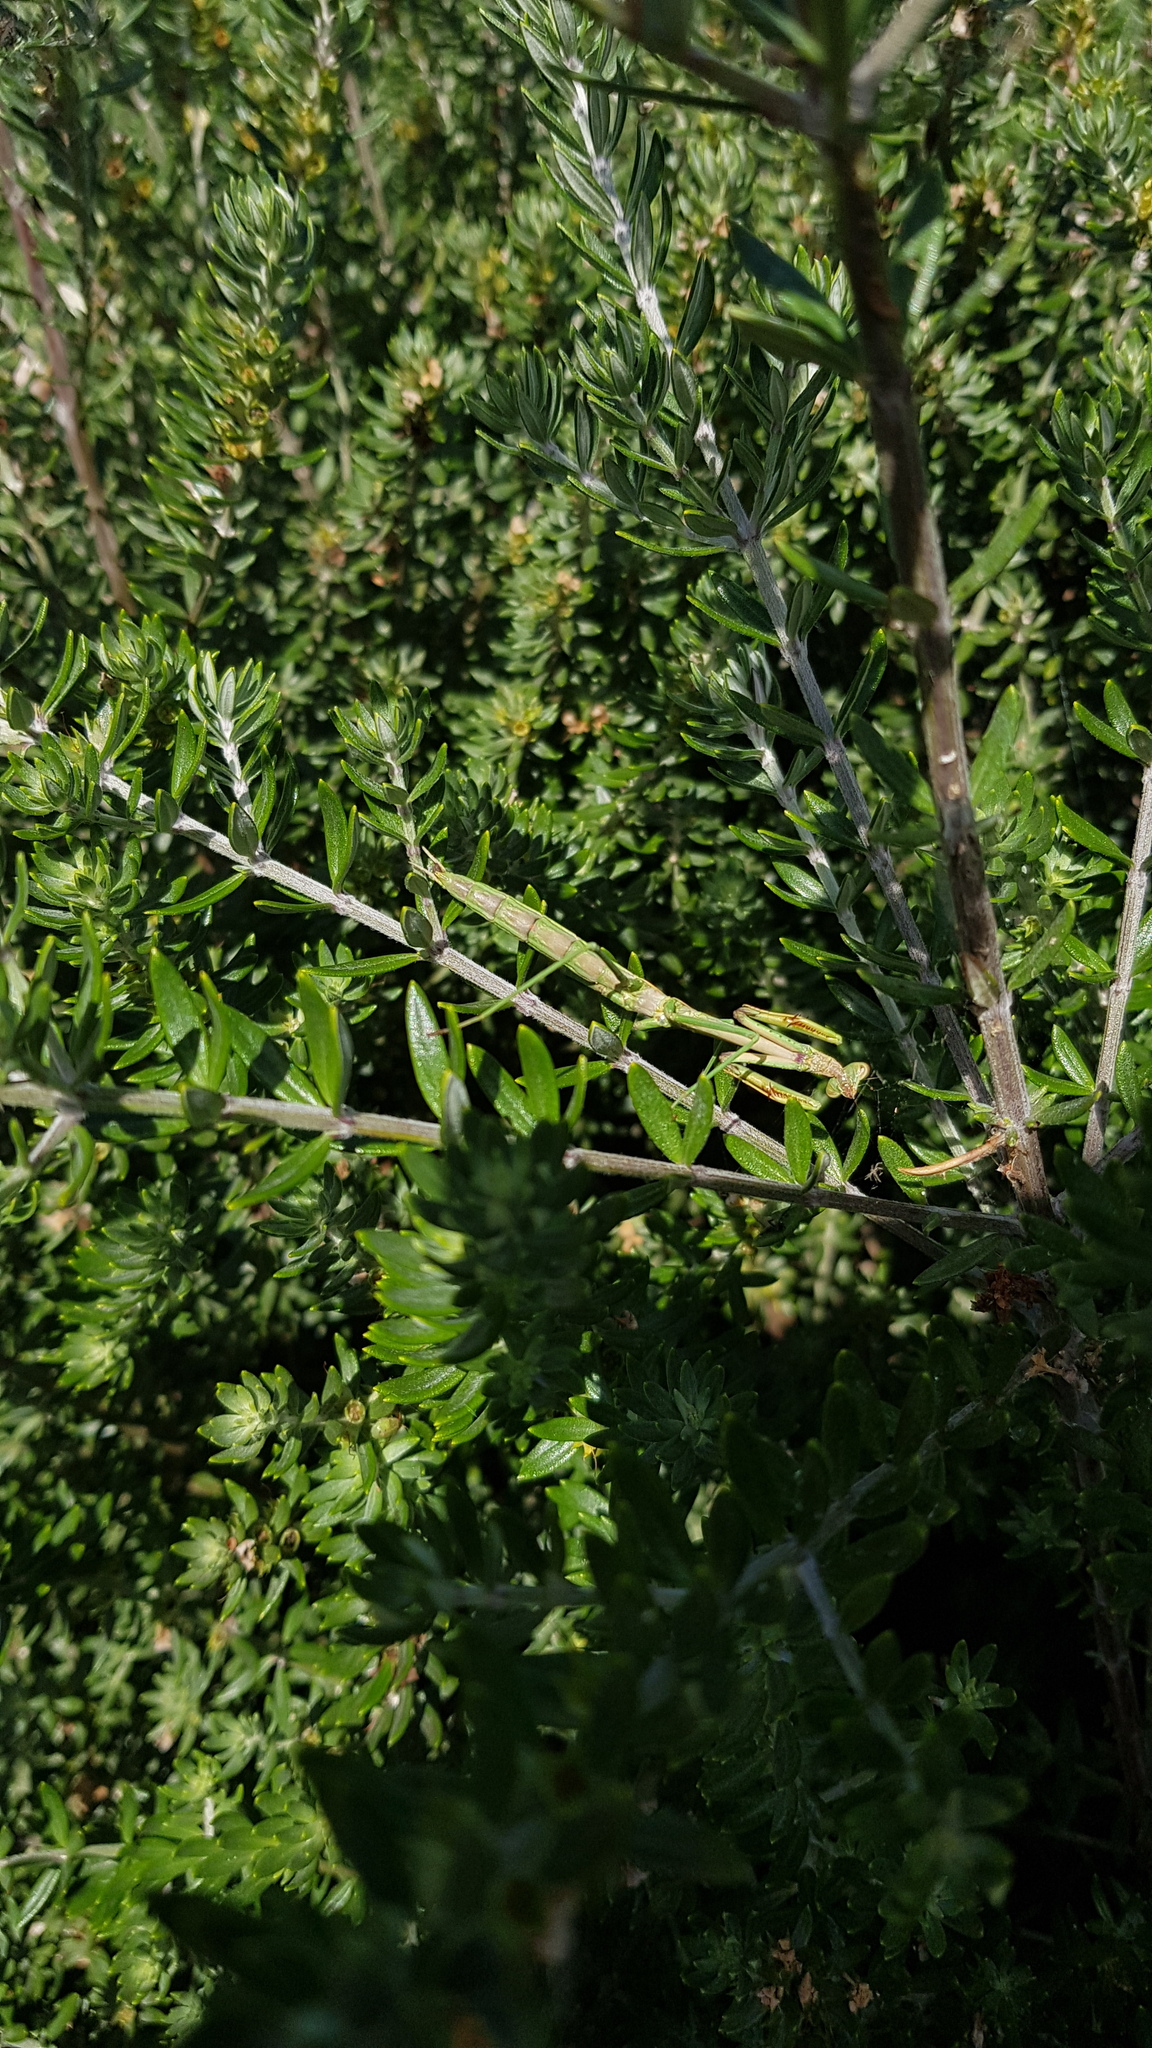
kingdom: Animalia
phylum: Arthropoda
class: Insecta
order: Mantodea
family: Mantidae
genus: Archimantis
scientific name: Archimantis latistyla
